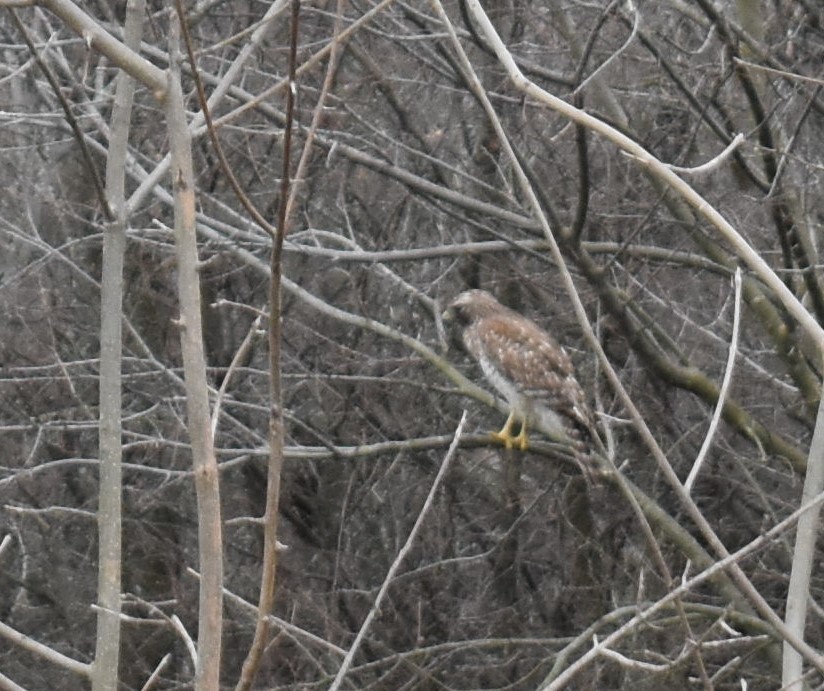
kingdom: Animalia
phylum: Chordata
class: Aves
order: Accipitriformes
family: Accipitridae
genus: Buteo
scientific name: Buteo lineatus
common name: Red-shouldered hawk
